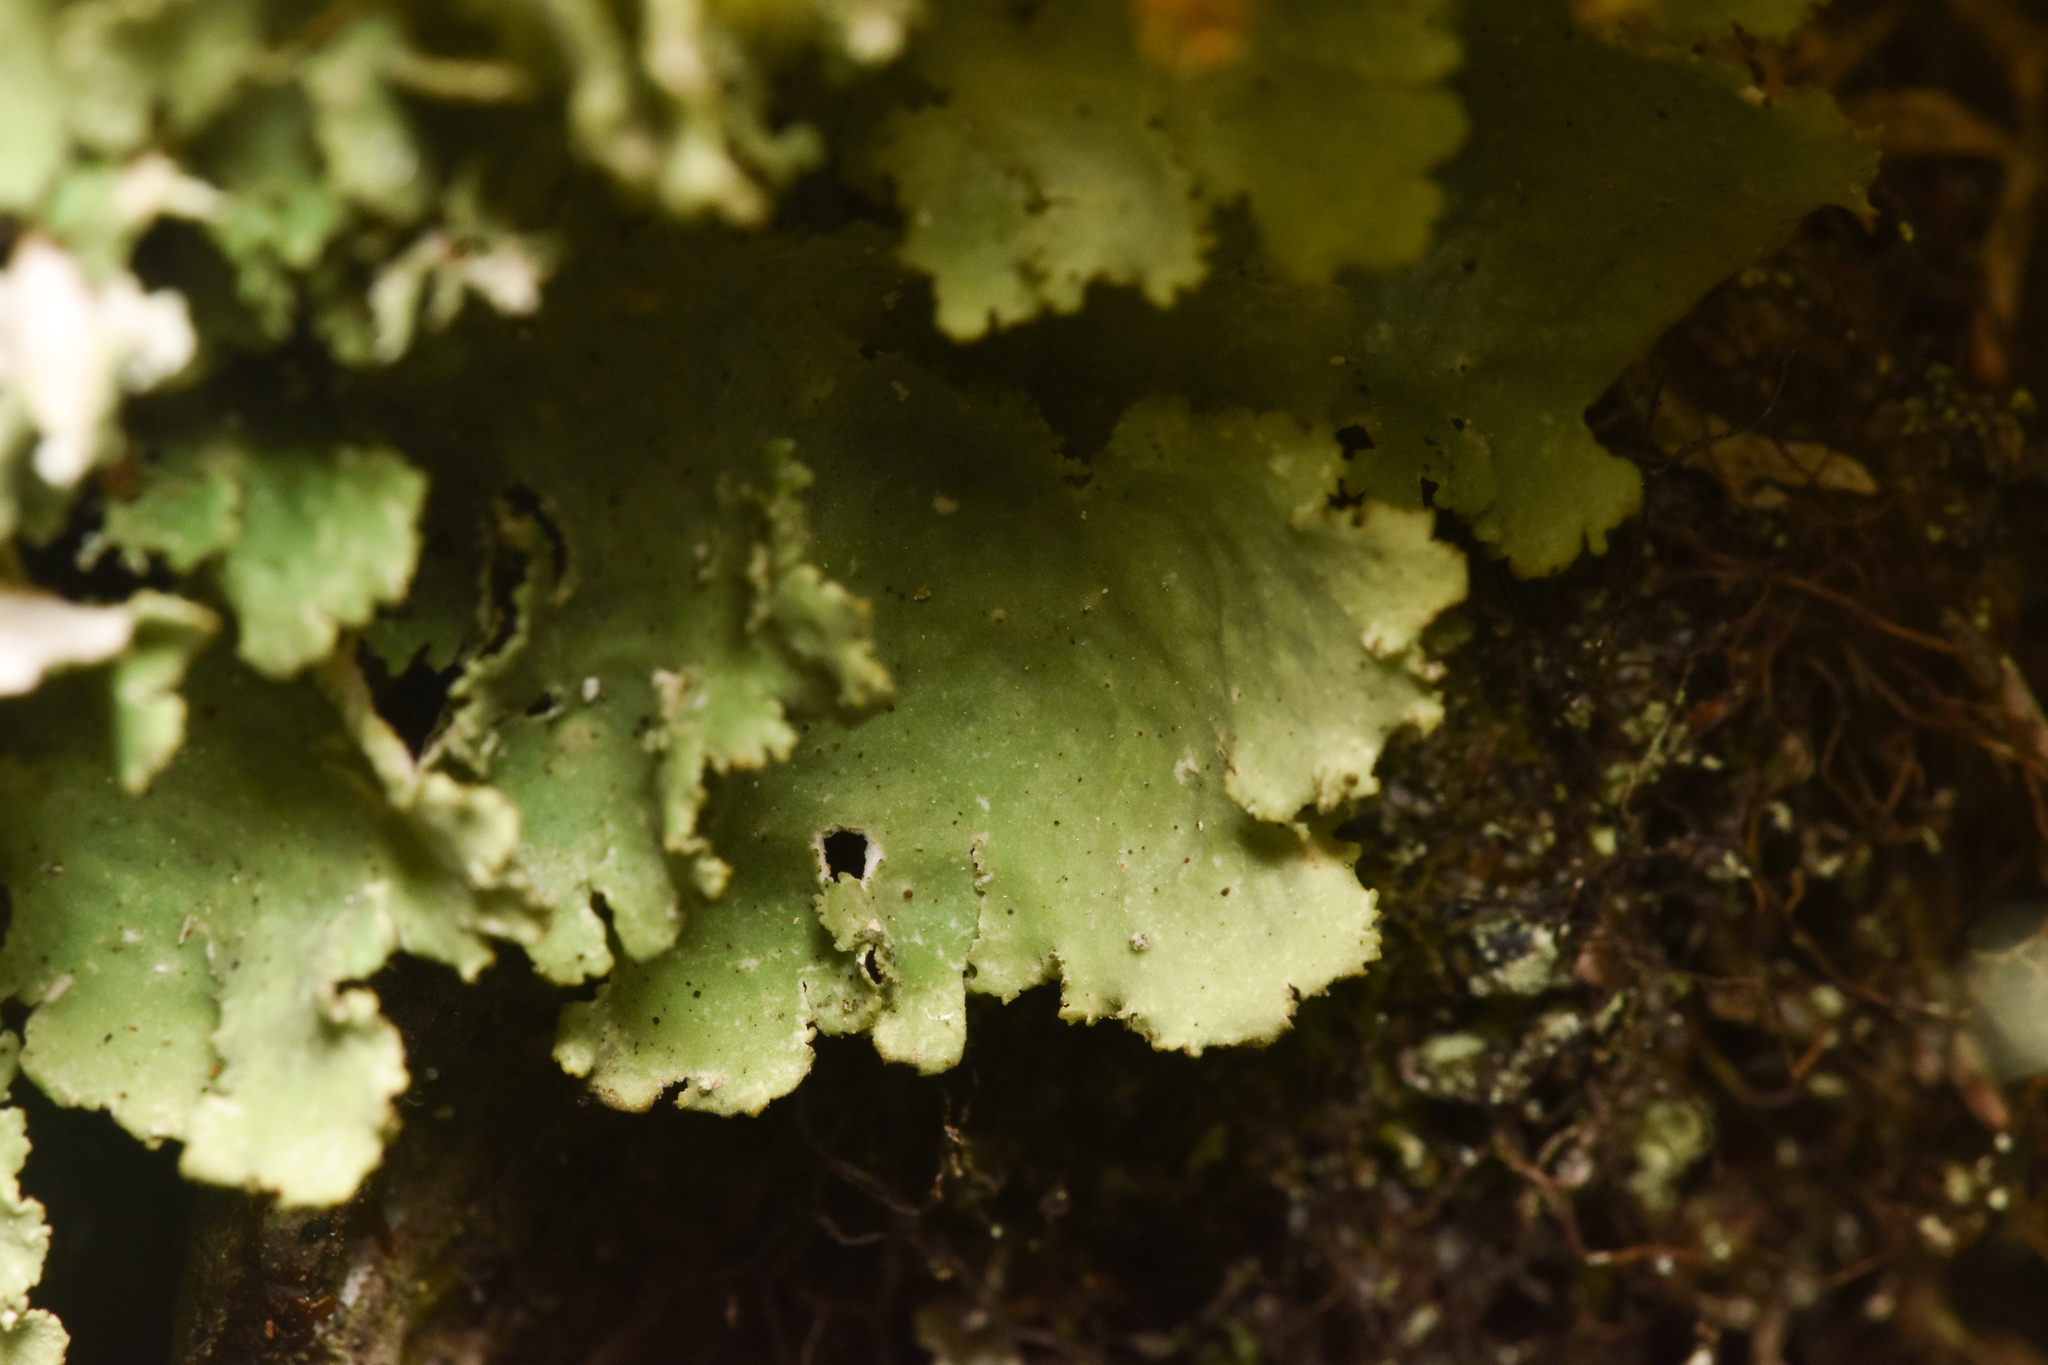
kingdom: Fungi
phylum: Ascomycota
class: Lecanoromycetes
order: Peltigerales
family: Lobariaceae
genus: Pseudocyphellaria
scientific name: Pseudocyphellaria rainierensis
